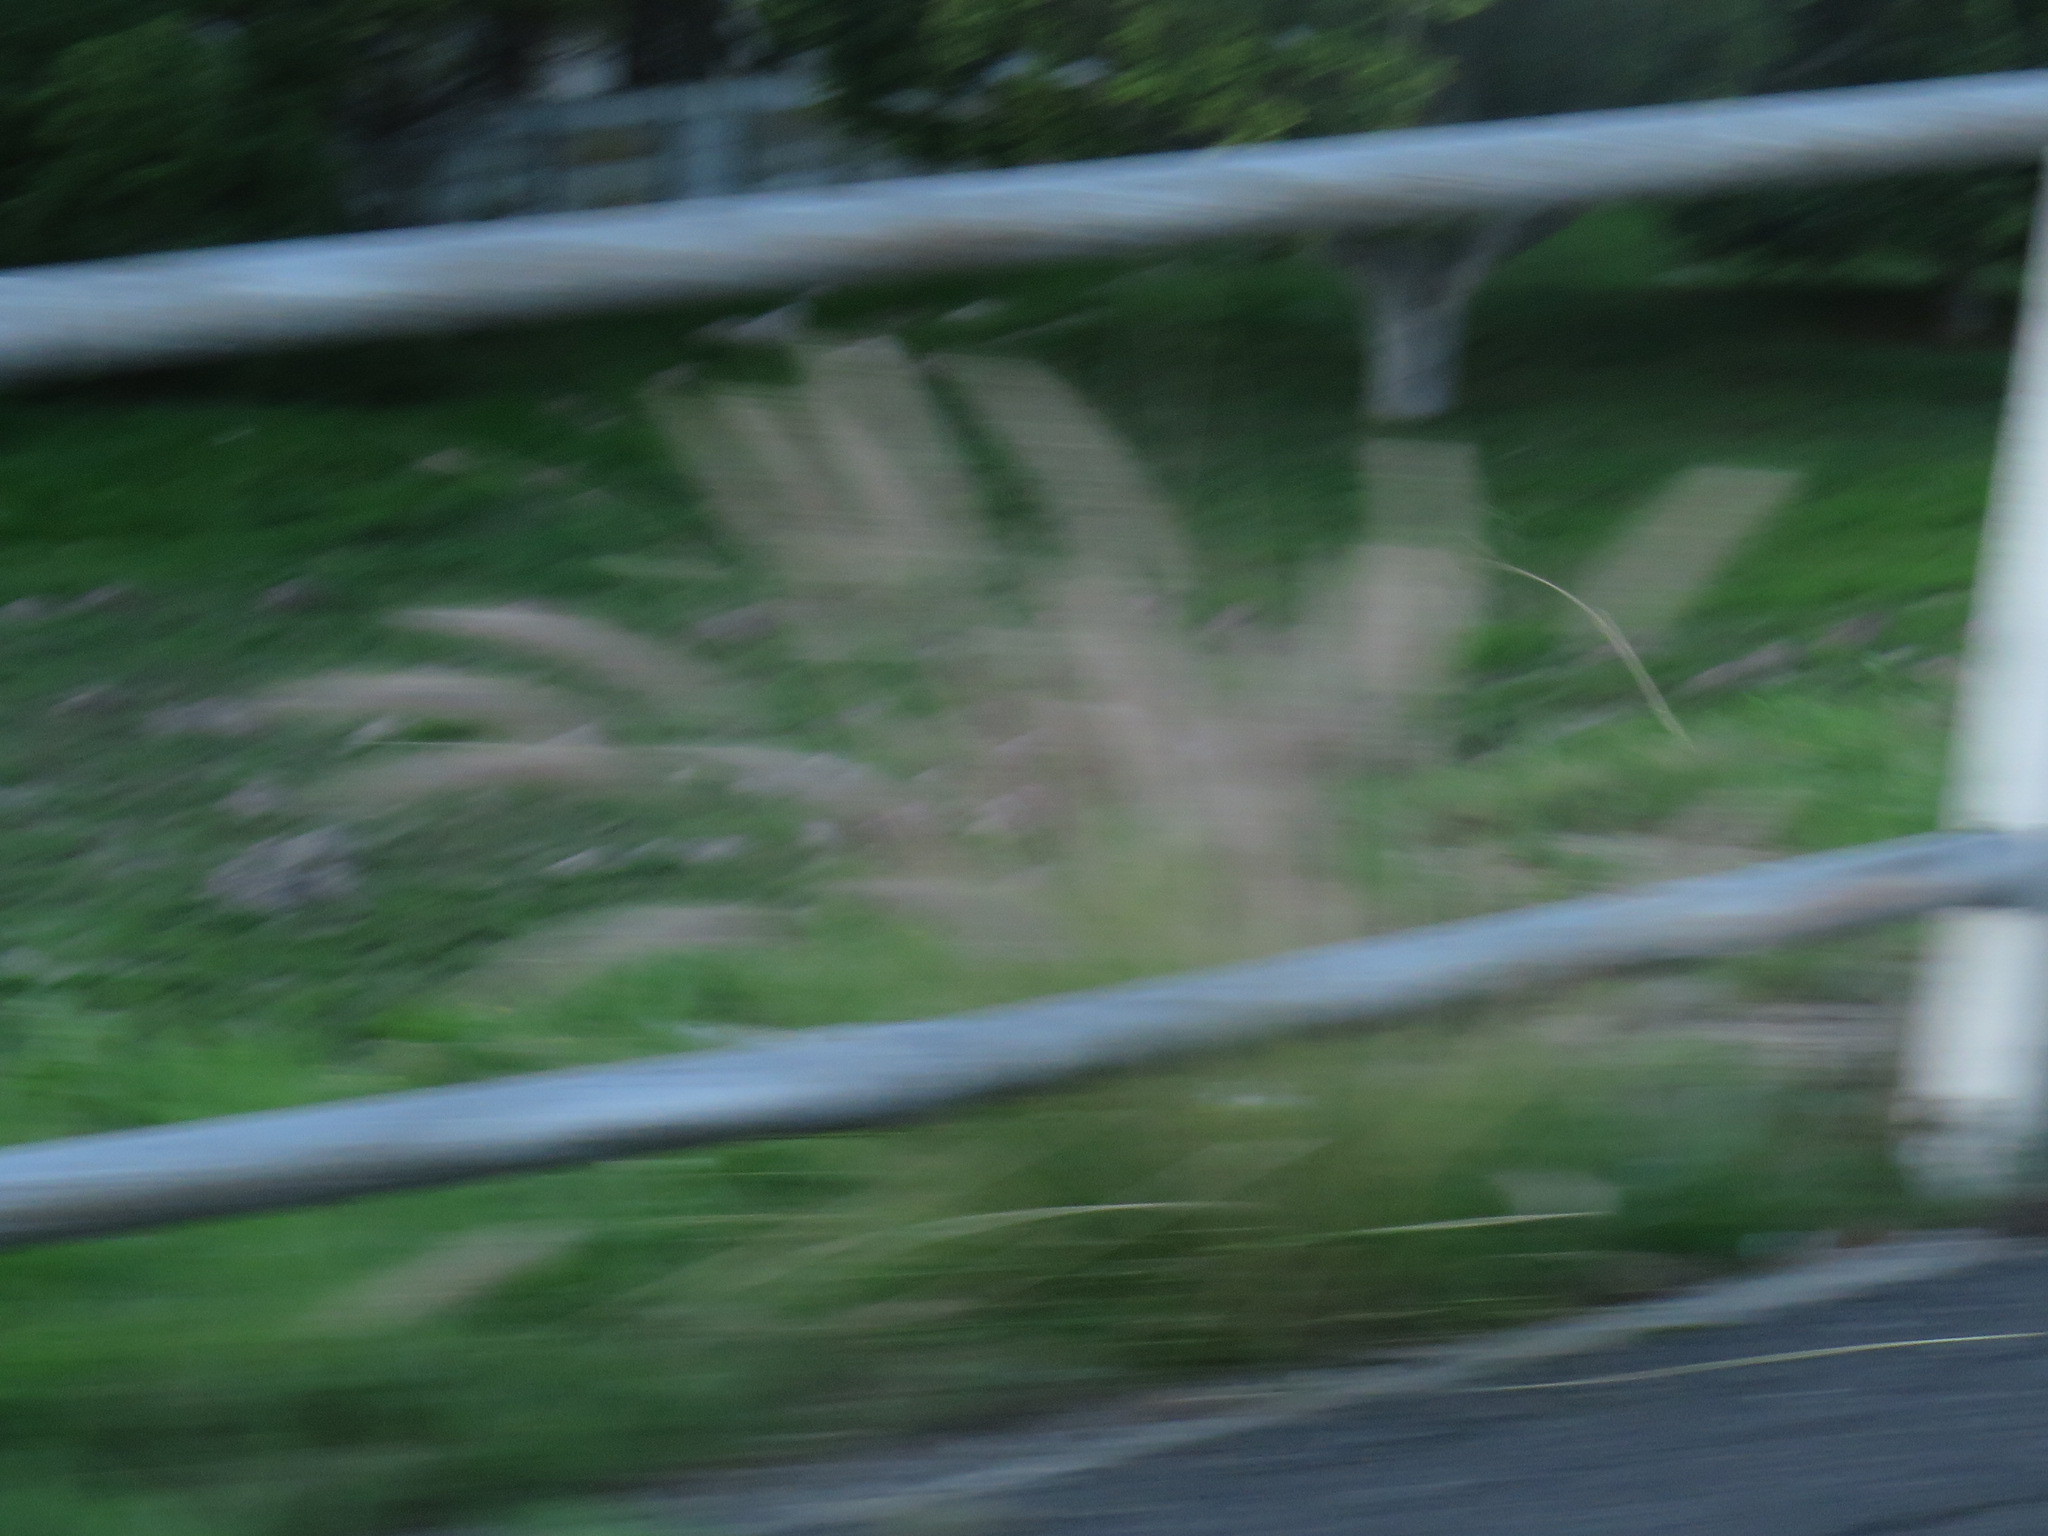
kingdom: Plantae
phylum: Tracheophyta
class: Liliopsida
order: Poales
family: Poaceae
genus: Cenchrus
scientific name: Cenchrus setaceus
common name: Crimson fountaingrass
